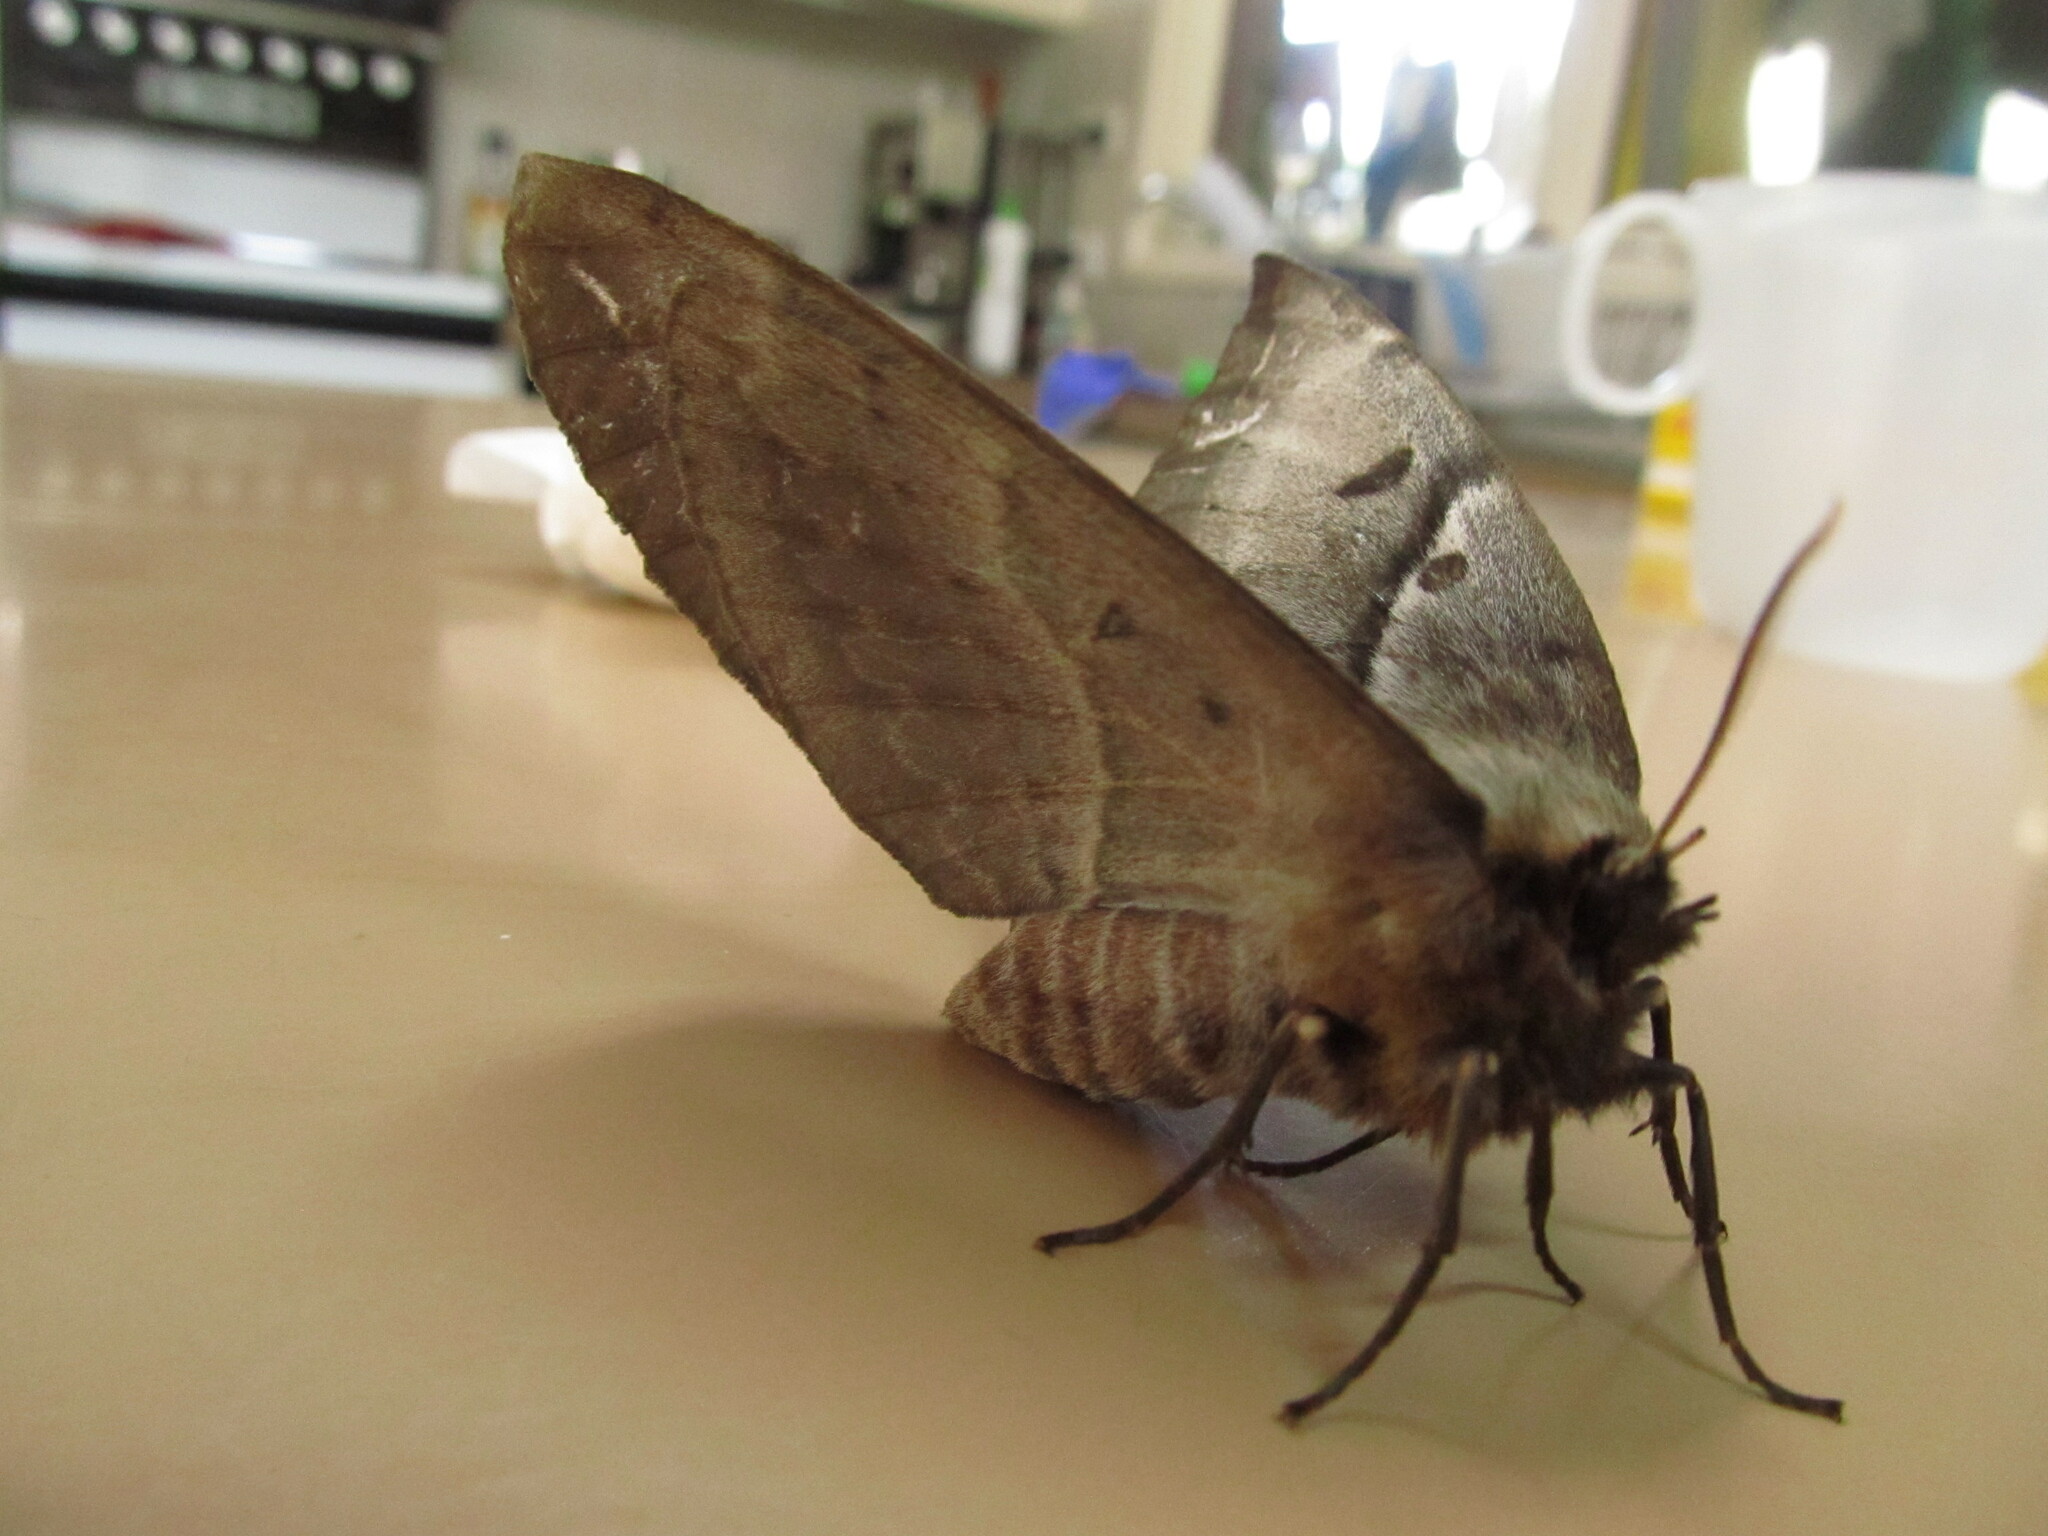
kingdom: Animalia
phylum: Arthropoda
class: Insecta
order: Lepidoptera
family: Anthelidae
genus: Chelepteryx
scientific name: Chelepteryx chalepteryx
